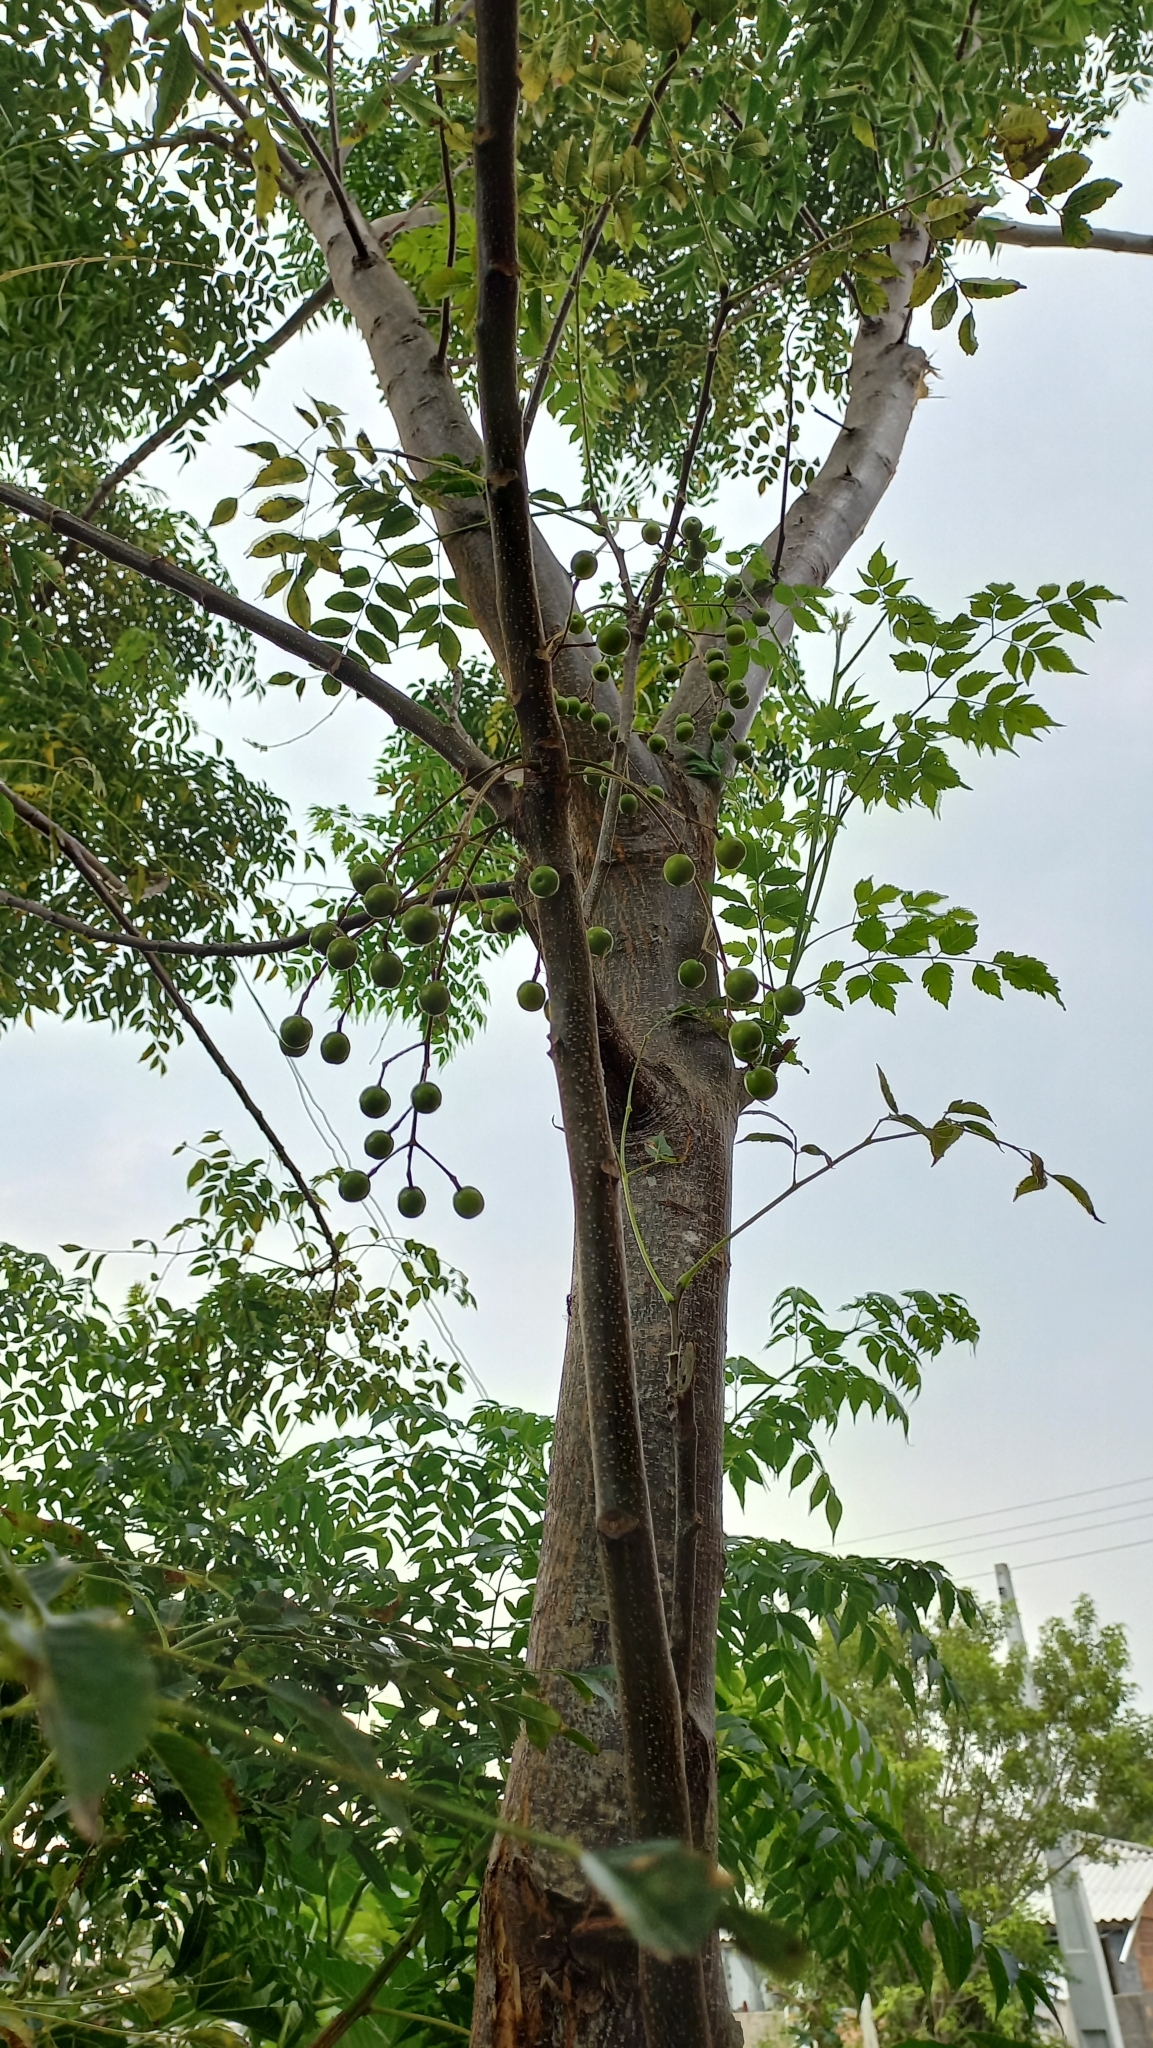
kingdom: Plantae
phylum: Tracheophyta
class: Magnoliopsida
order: Sapindales
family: Meliaceae
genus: Melia
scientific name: Melia azedarach
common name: Chinaberrytree
